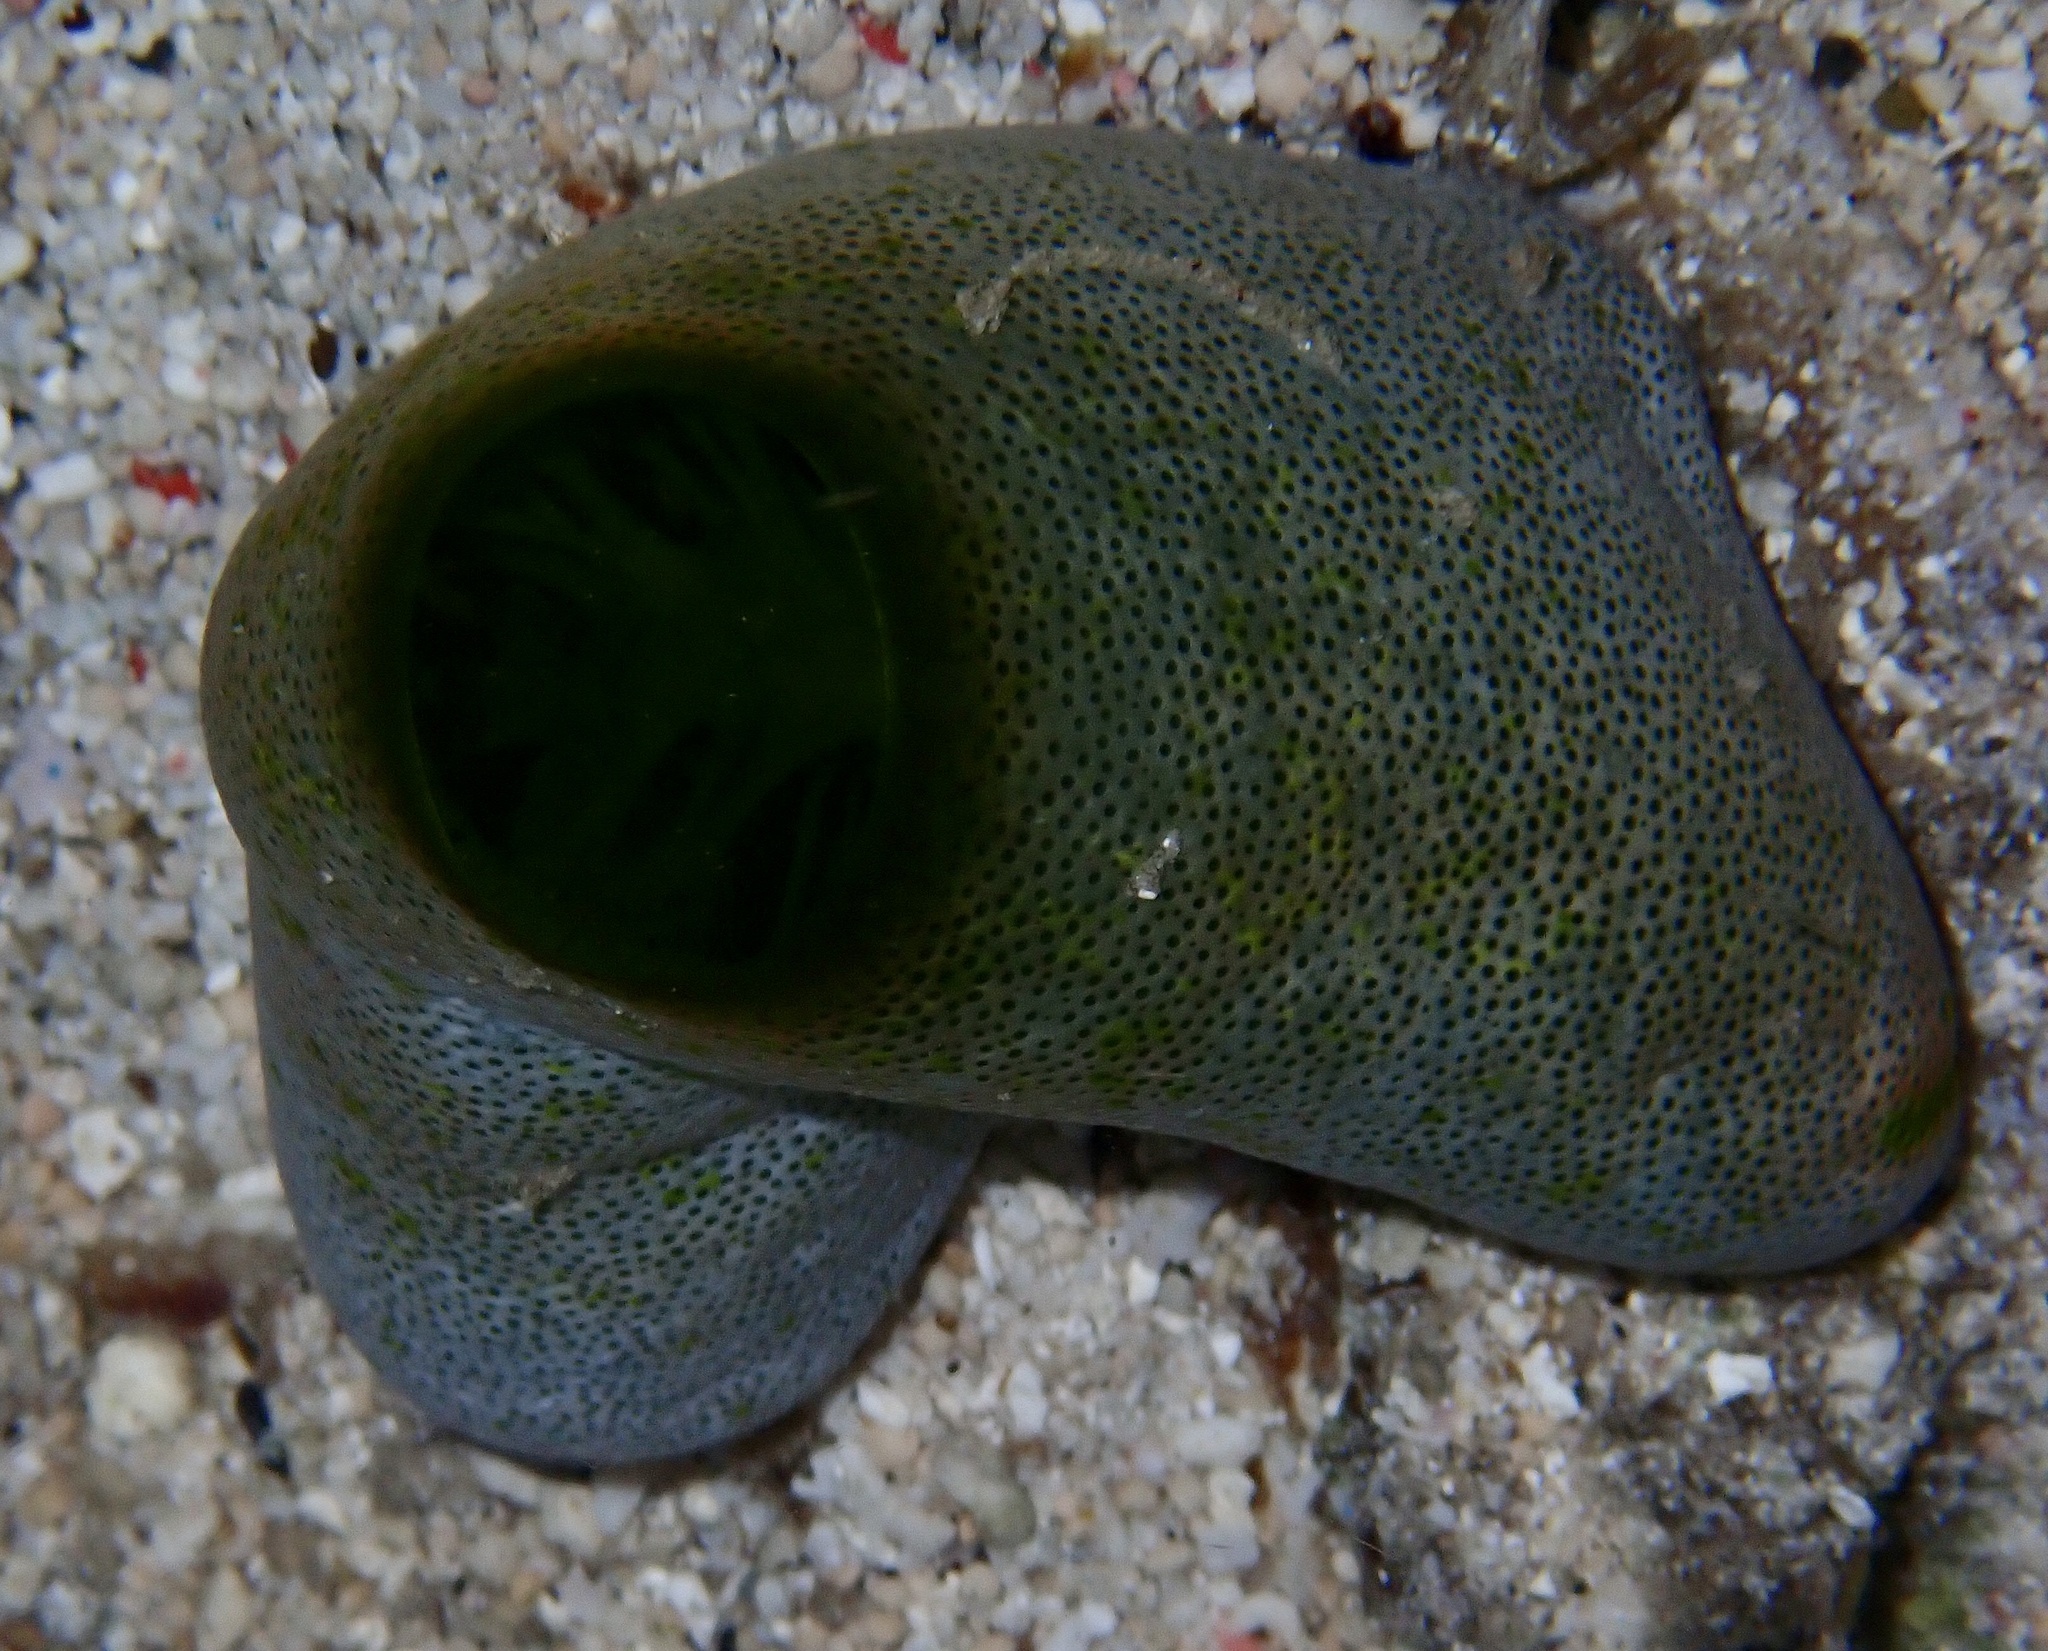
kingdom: Animalia
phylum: Chordata
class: Ascidiacea
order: Aplousobranchia
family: Didemnidae
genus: Didemnum
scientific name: Didemnum molle
